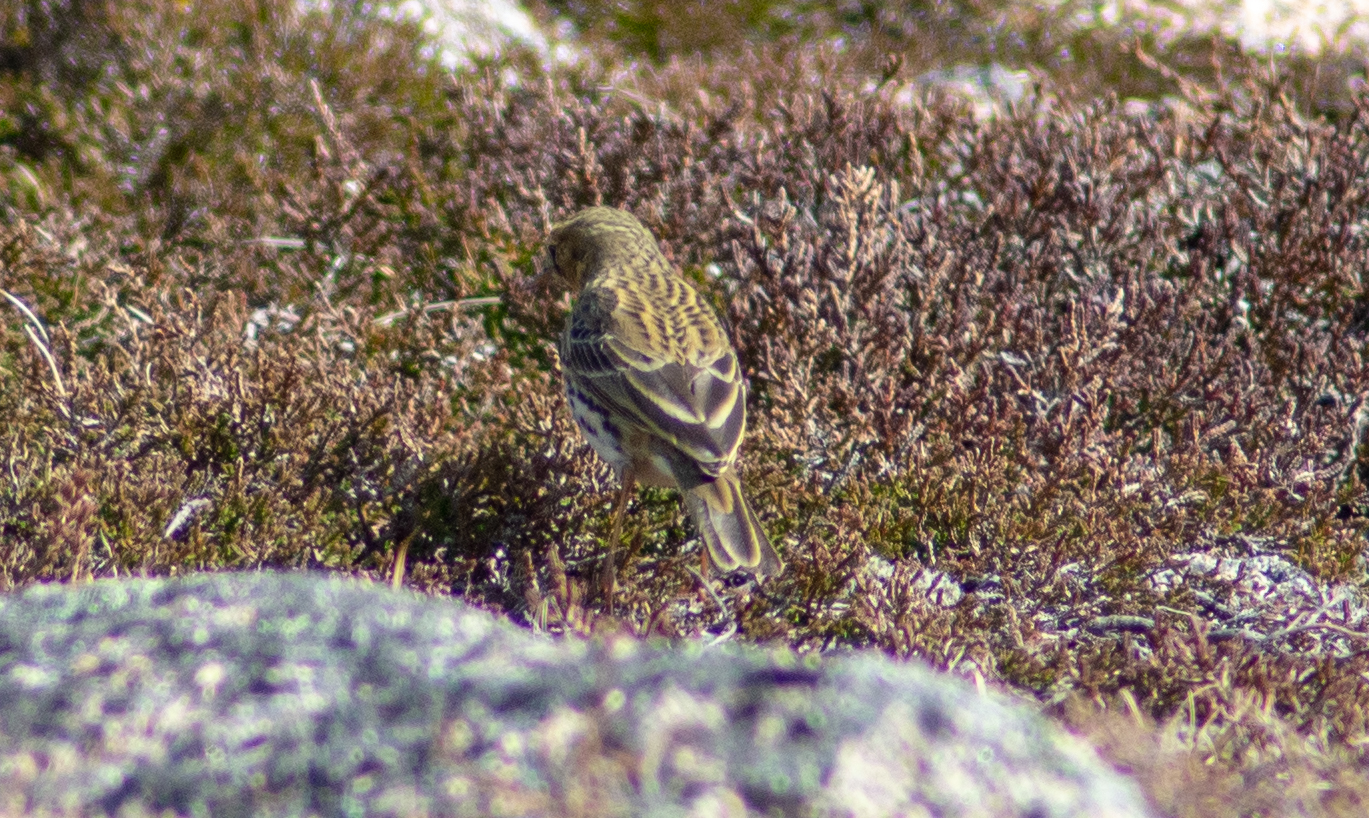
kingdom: Animalia
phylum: Chordata
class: Aves
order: Passeriformes
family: Motacillidae
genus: Anthus
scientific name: Anthus pratensis
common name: Meadow pipit
